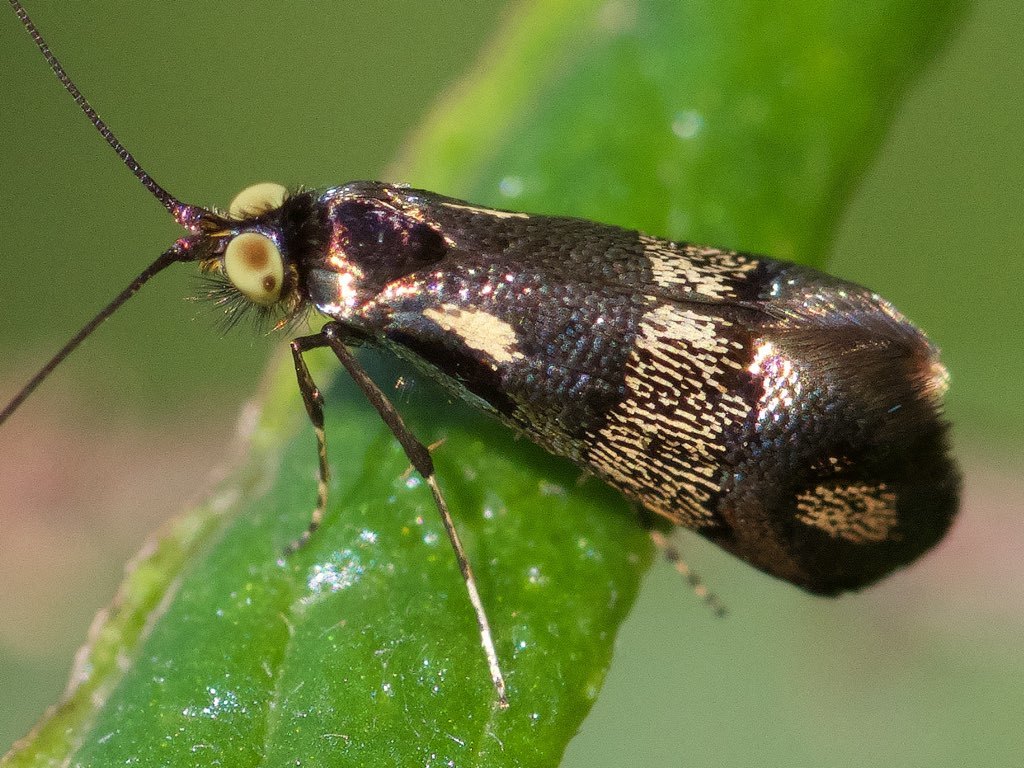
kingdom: Animalia
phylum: Arthropoda
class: Insecta
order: Lepidoptera
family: Adelidae
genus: Nemophora
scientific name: Nemophora topazias
